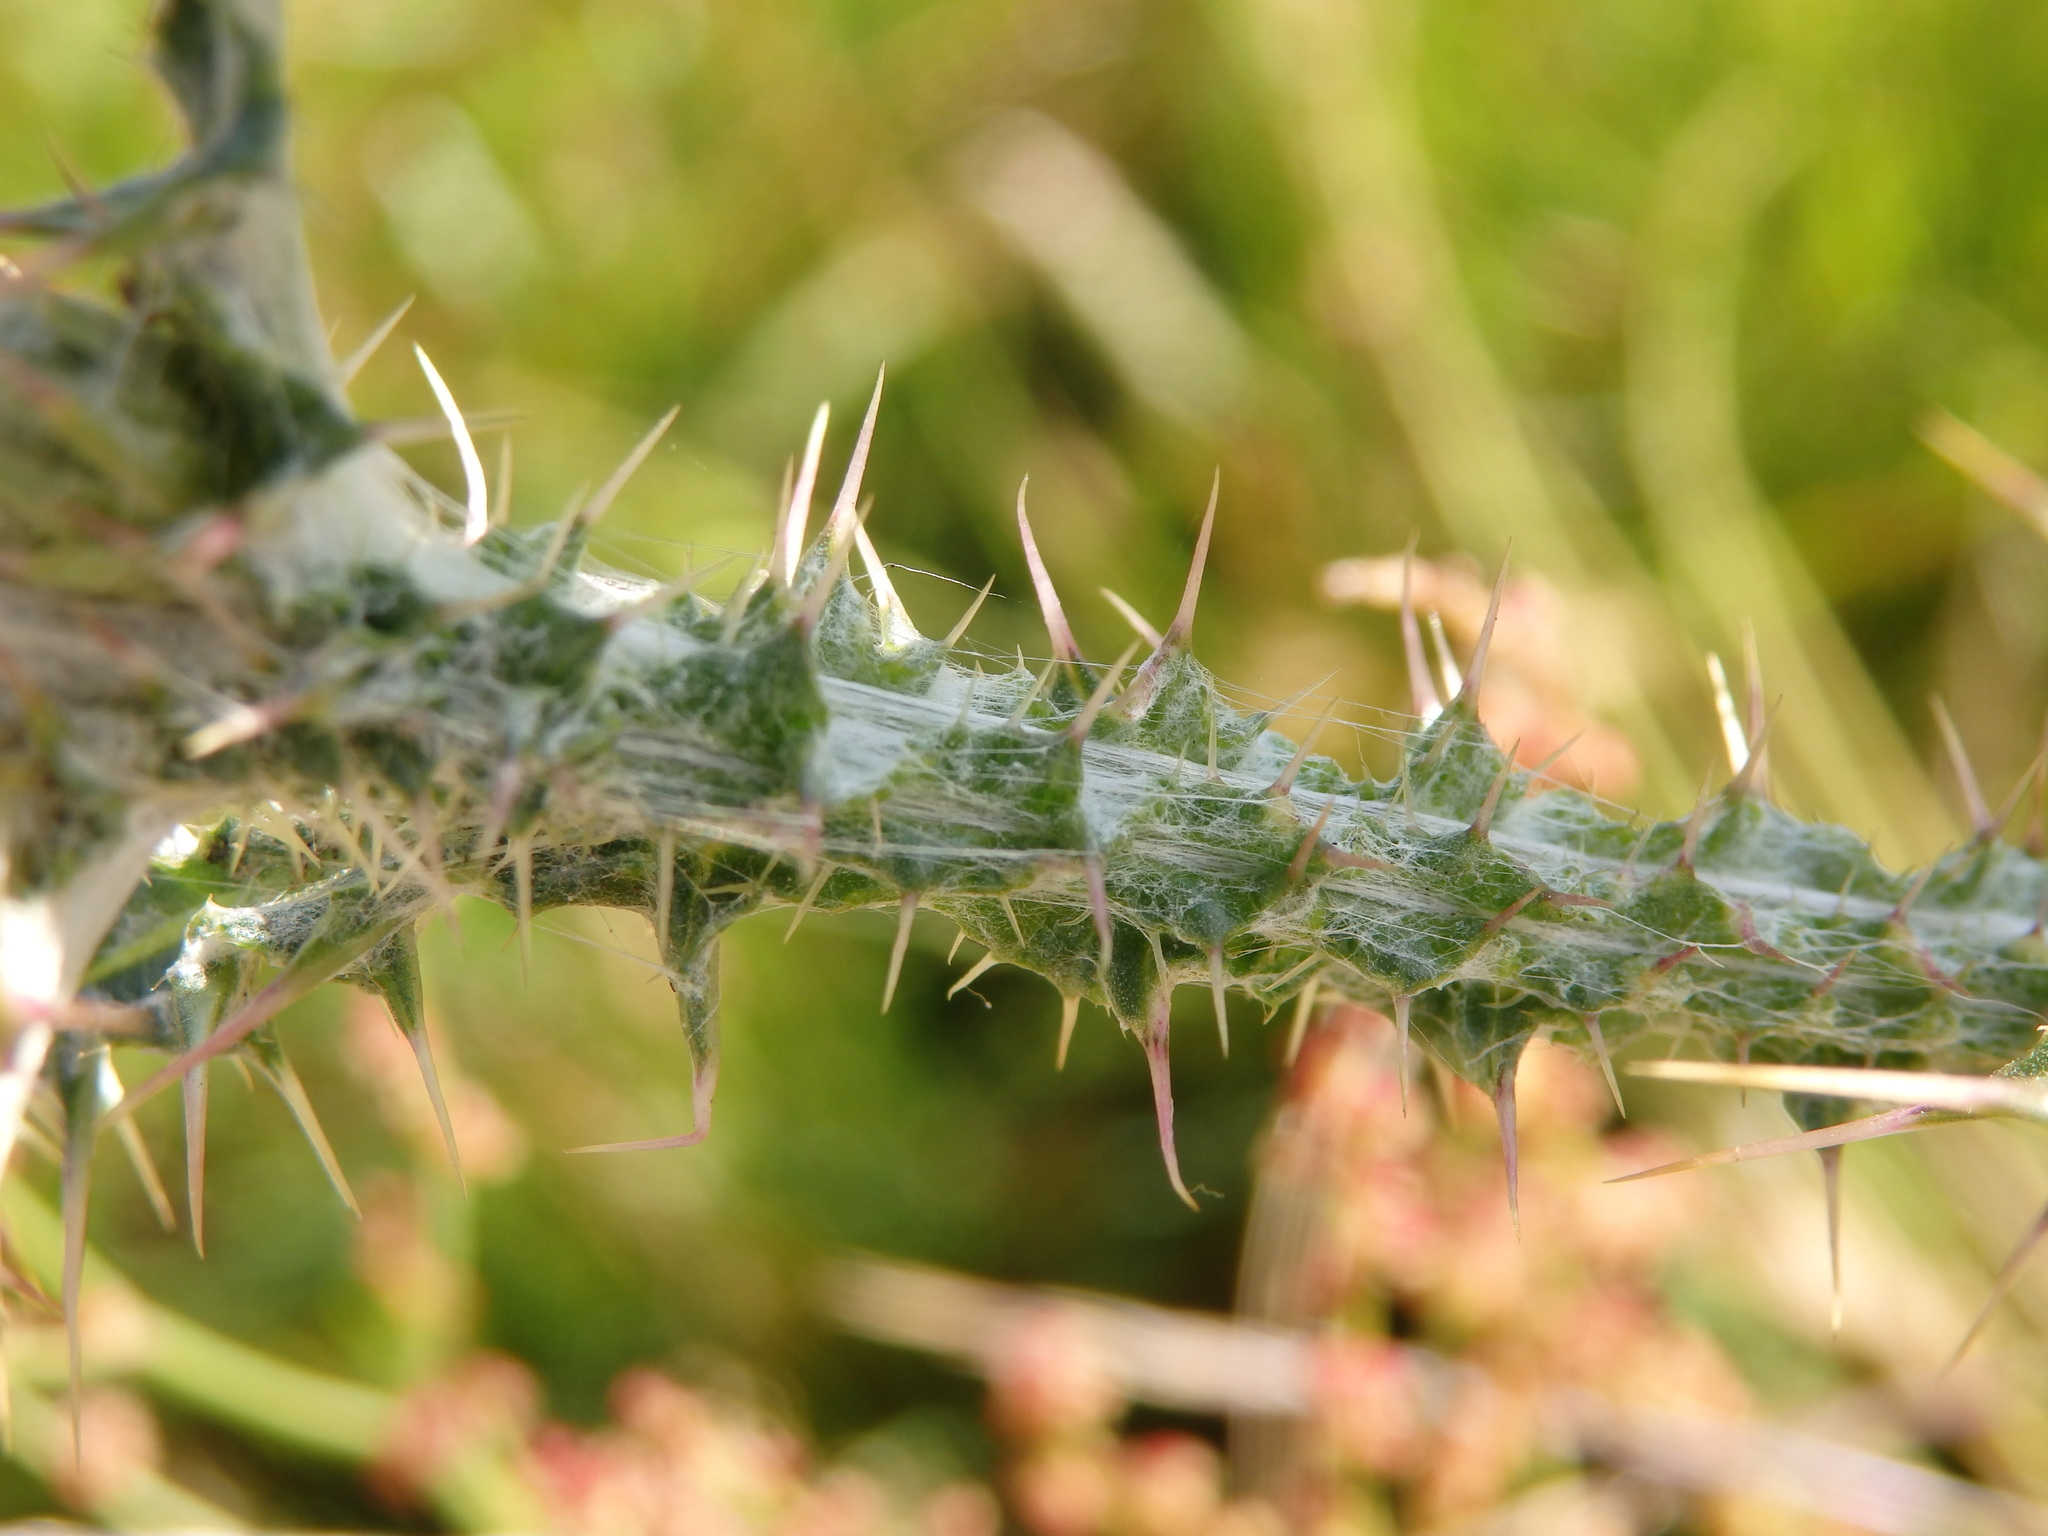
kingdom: Plantae
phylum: Tracheophyta
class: Magnoliopsida
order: Asterales
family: Asteraceae
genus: Carduus
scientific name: Carduus carpetanus
